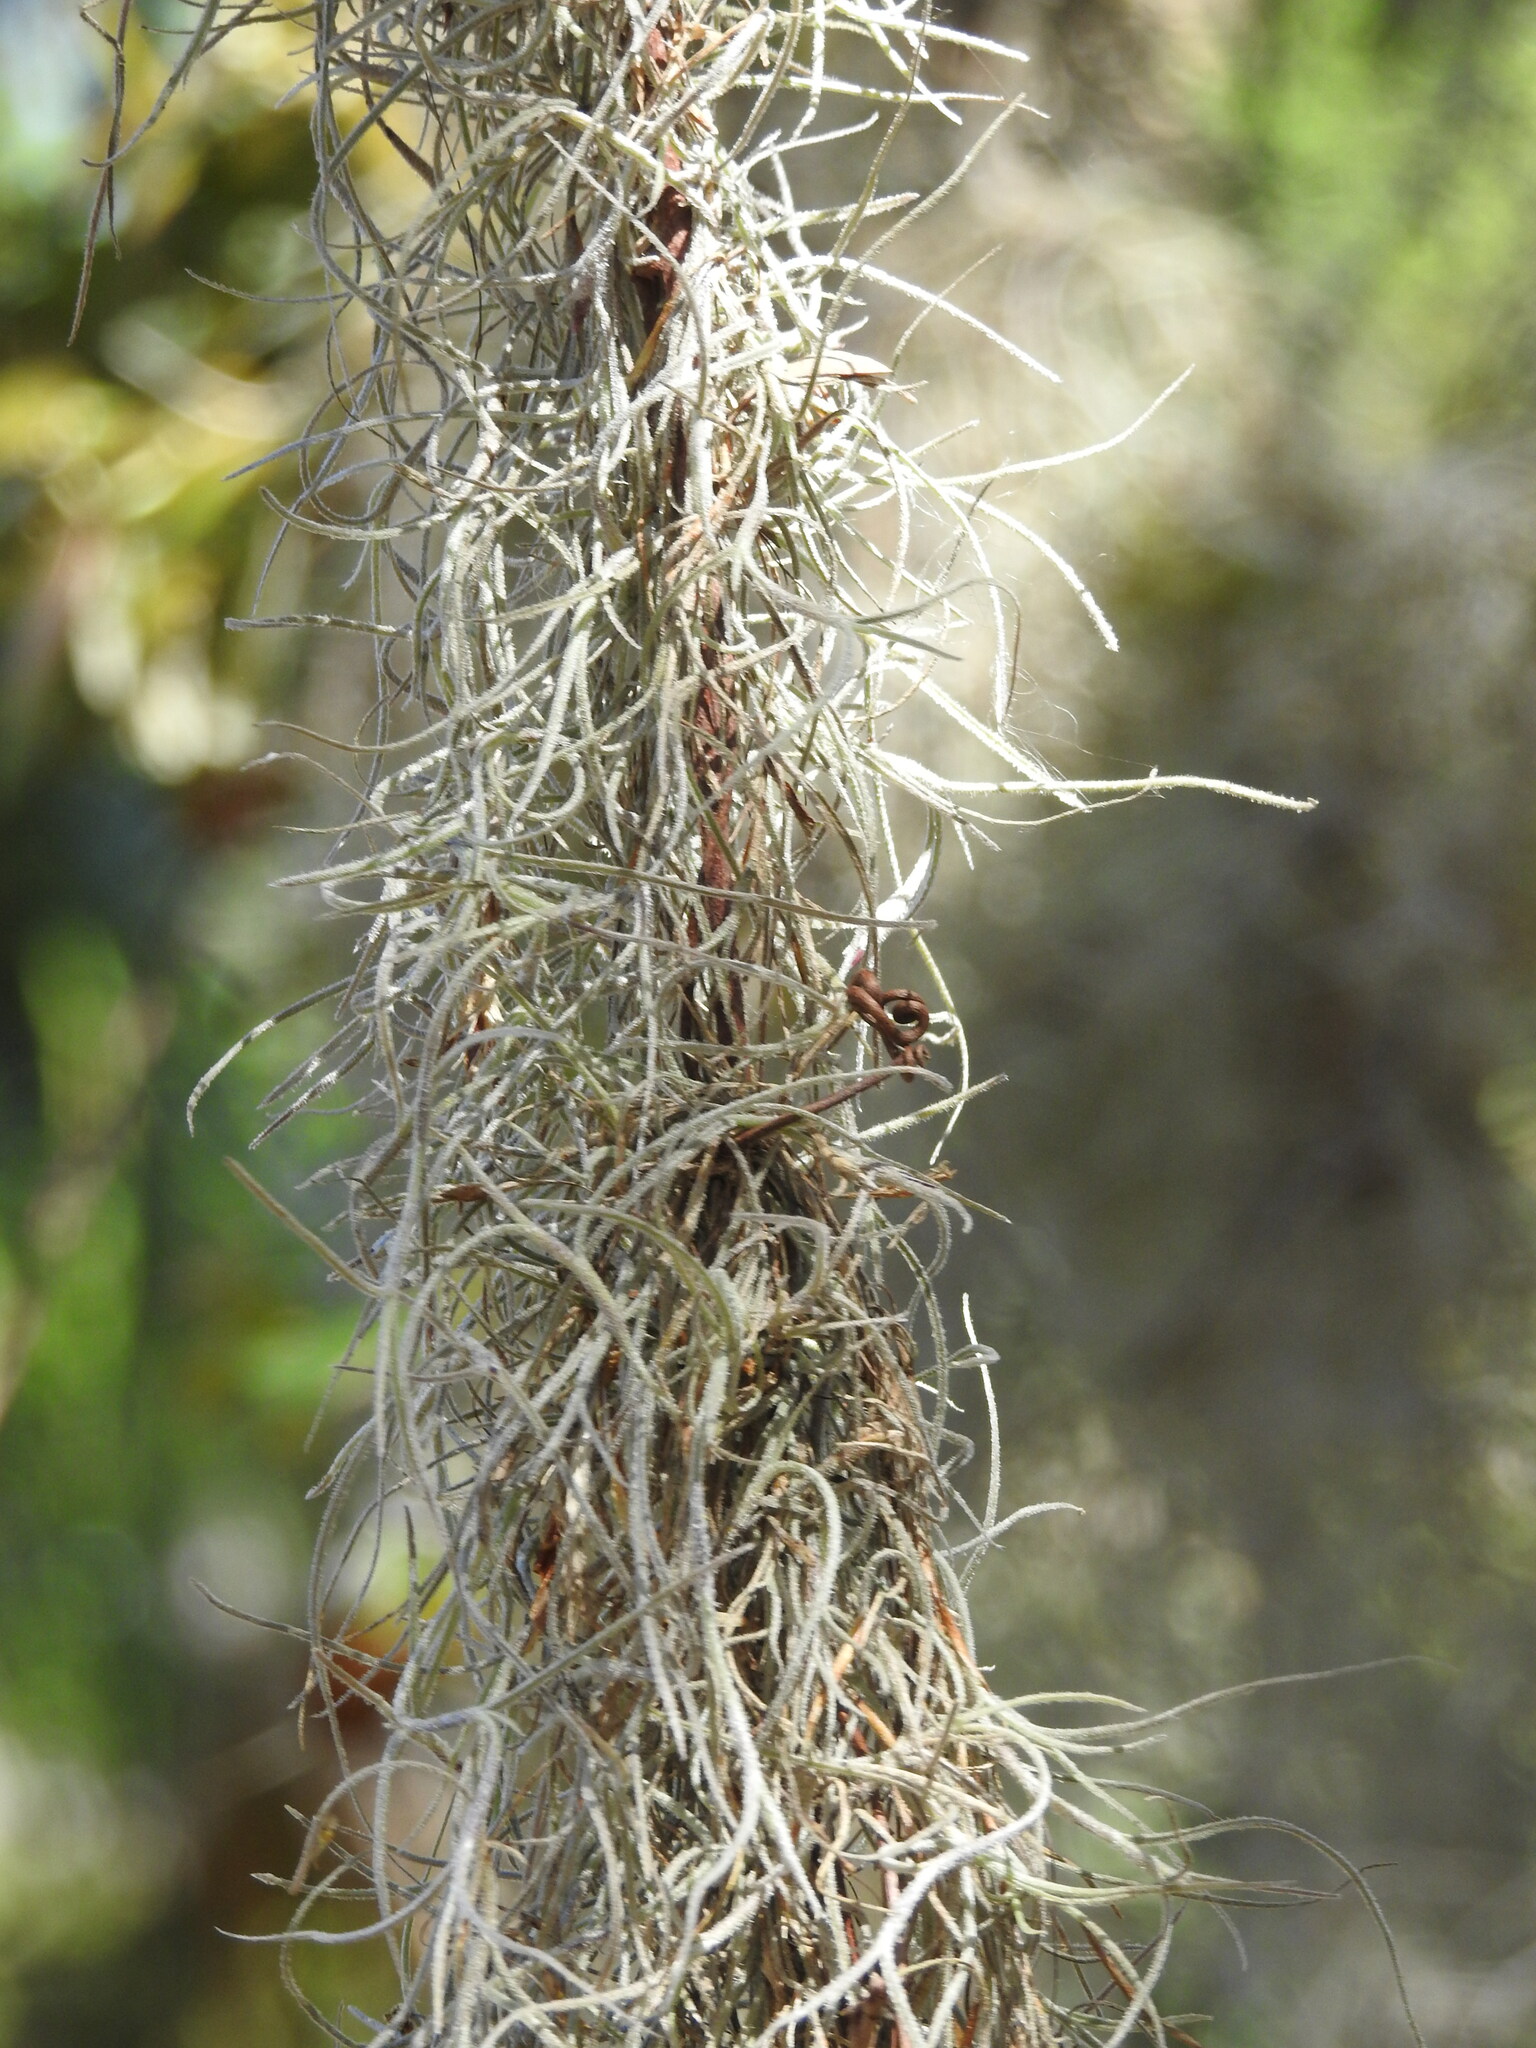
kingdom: Plantae
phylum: Tracheophyta
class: Liliopsida
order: Poales
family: Bromeliaceae
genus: Tillandsia
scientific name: Tillandsia usneoides
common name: Spanish moss
